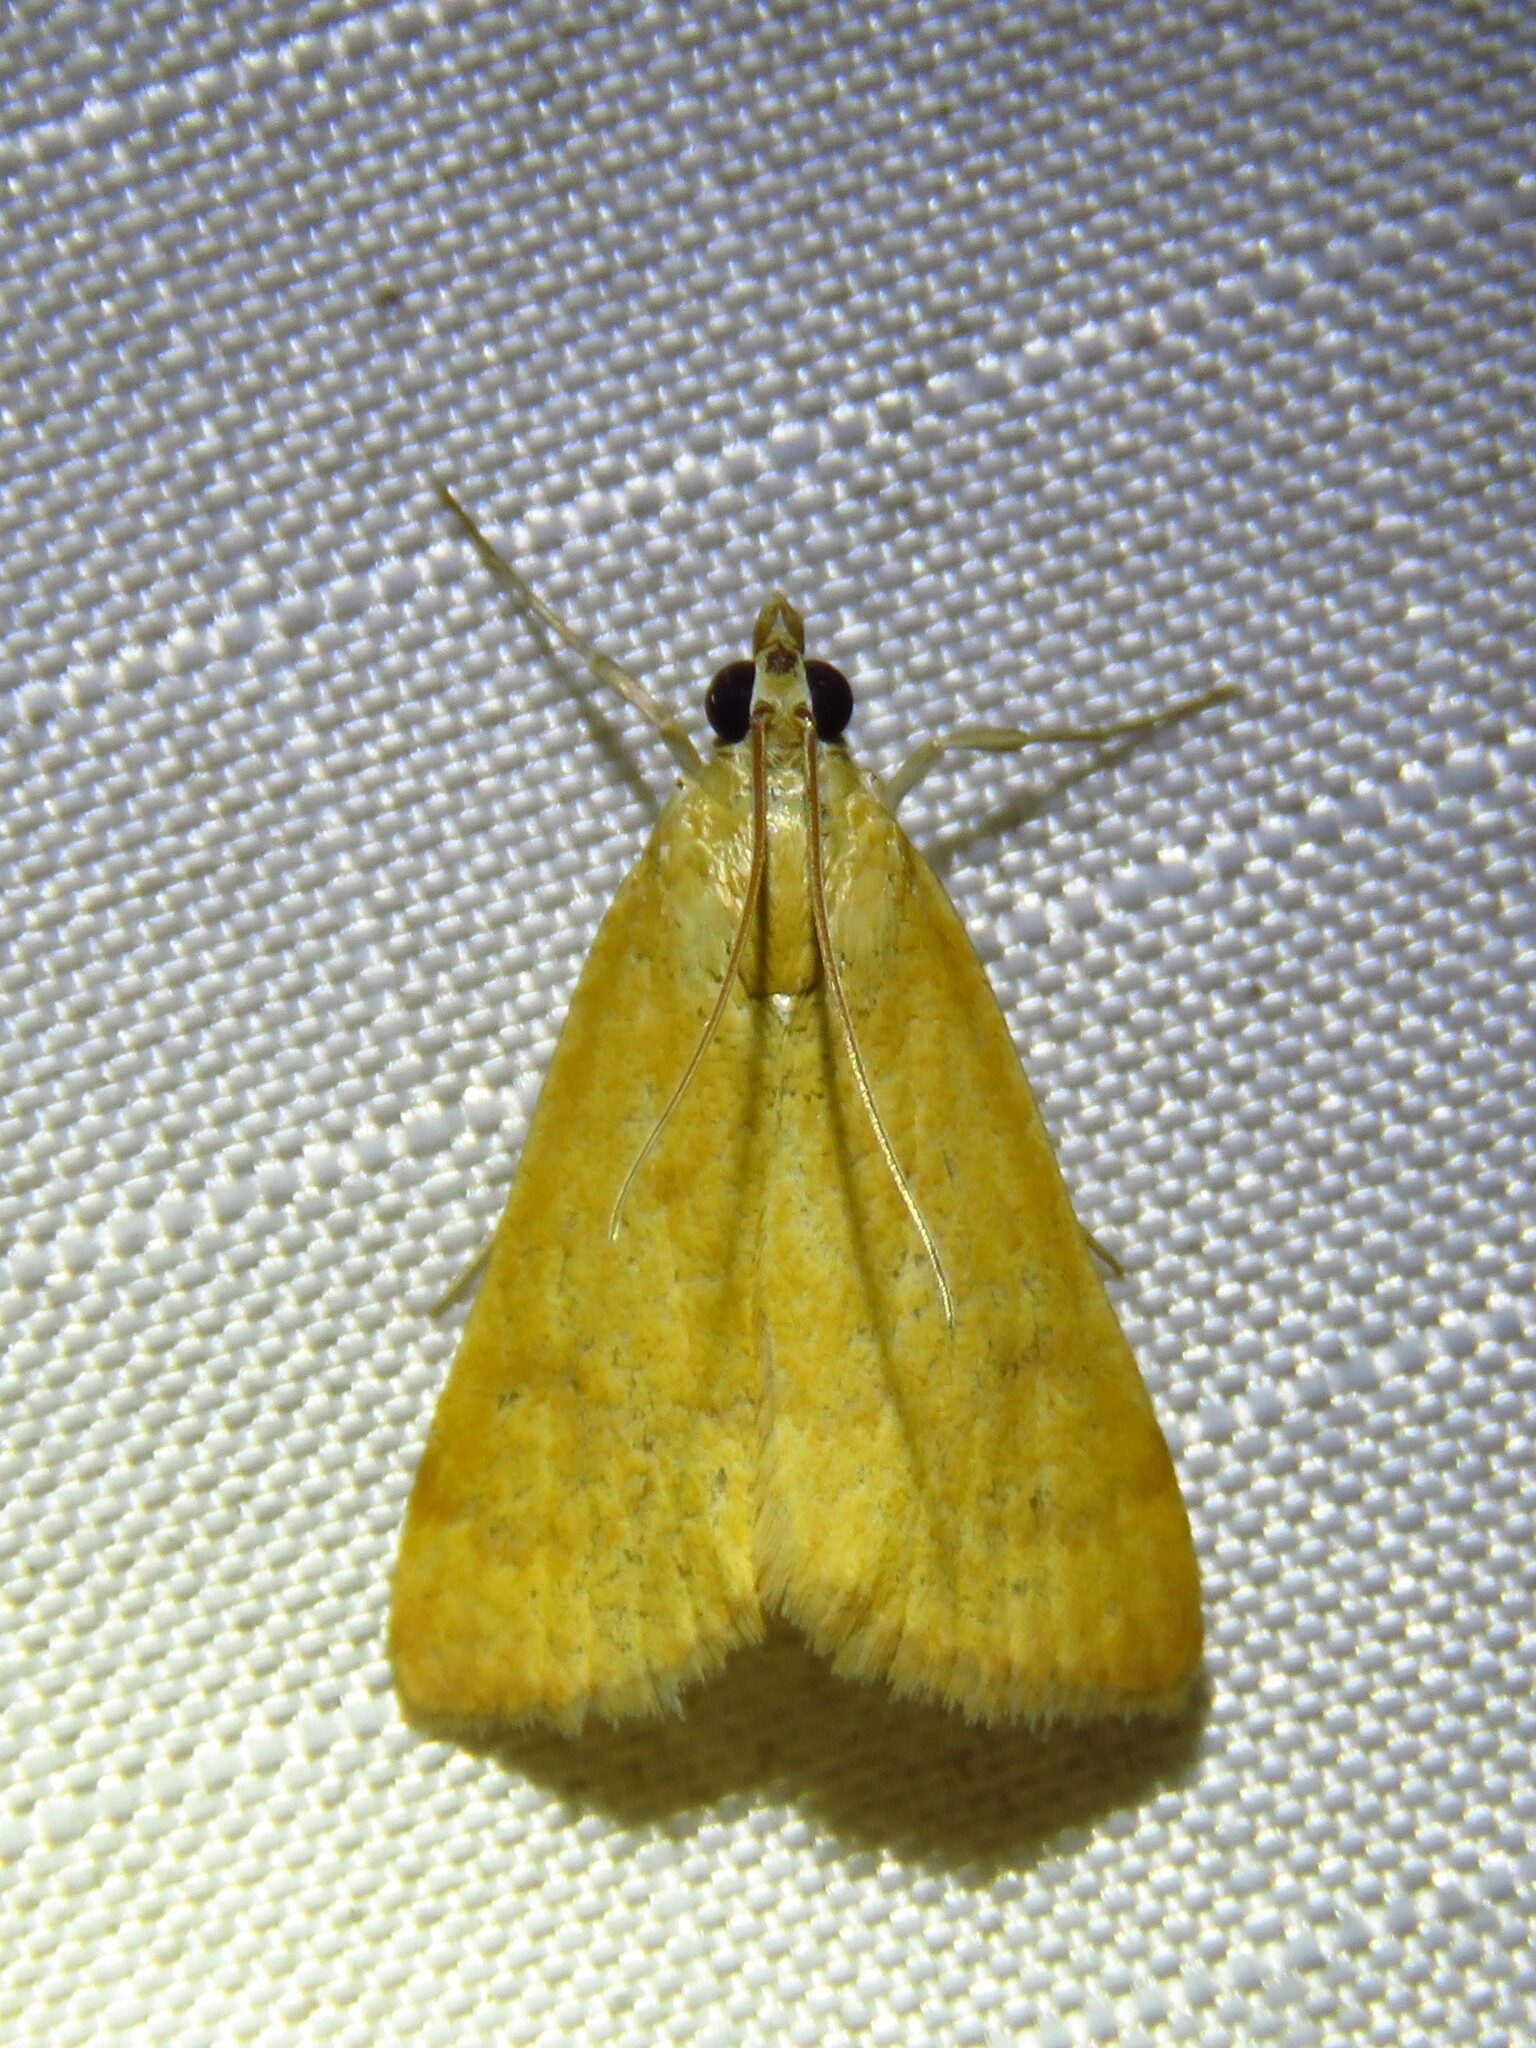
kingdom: Animalia
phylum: Arthropoda
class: Insecta
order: Lepidoptera
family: Crambidae
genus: Achyra
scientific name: Achyra rantalis
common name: Garden webworm
